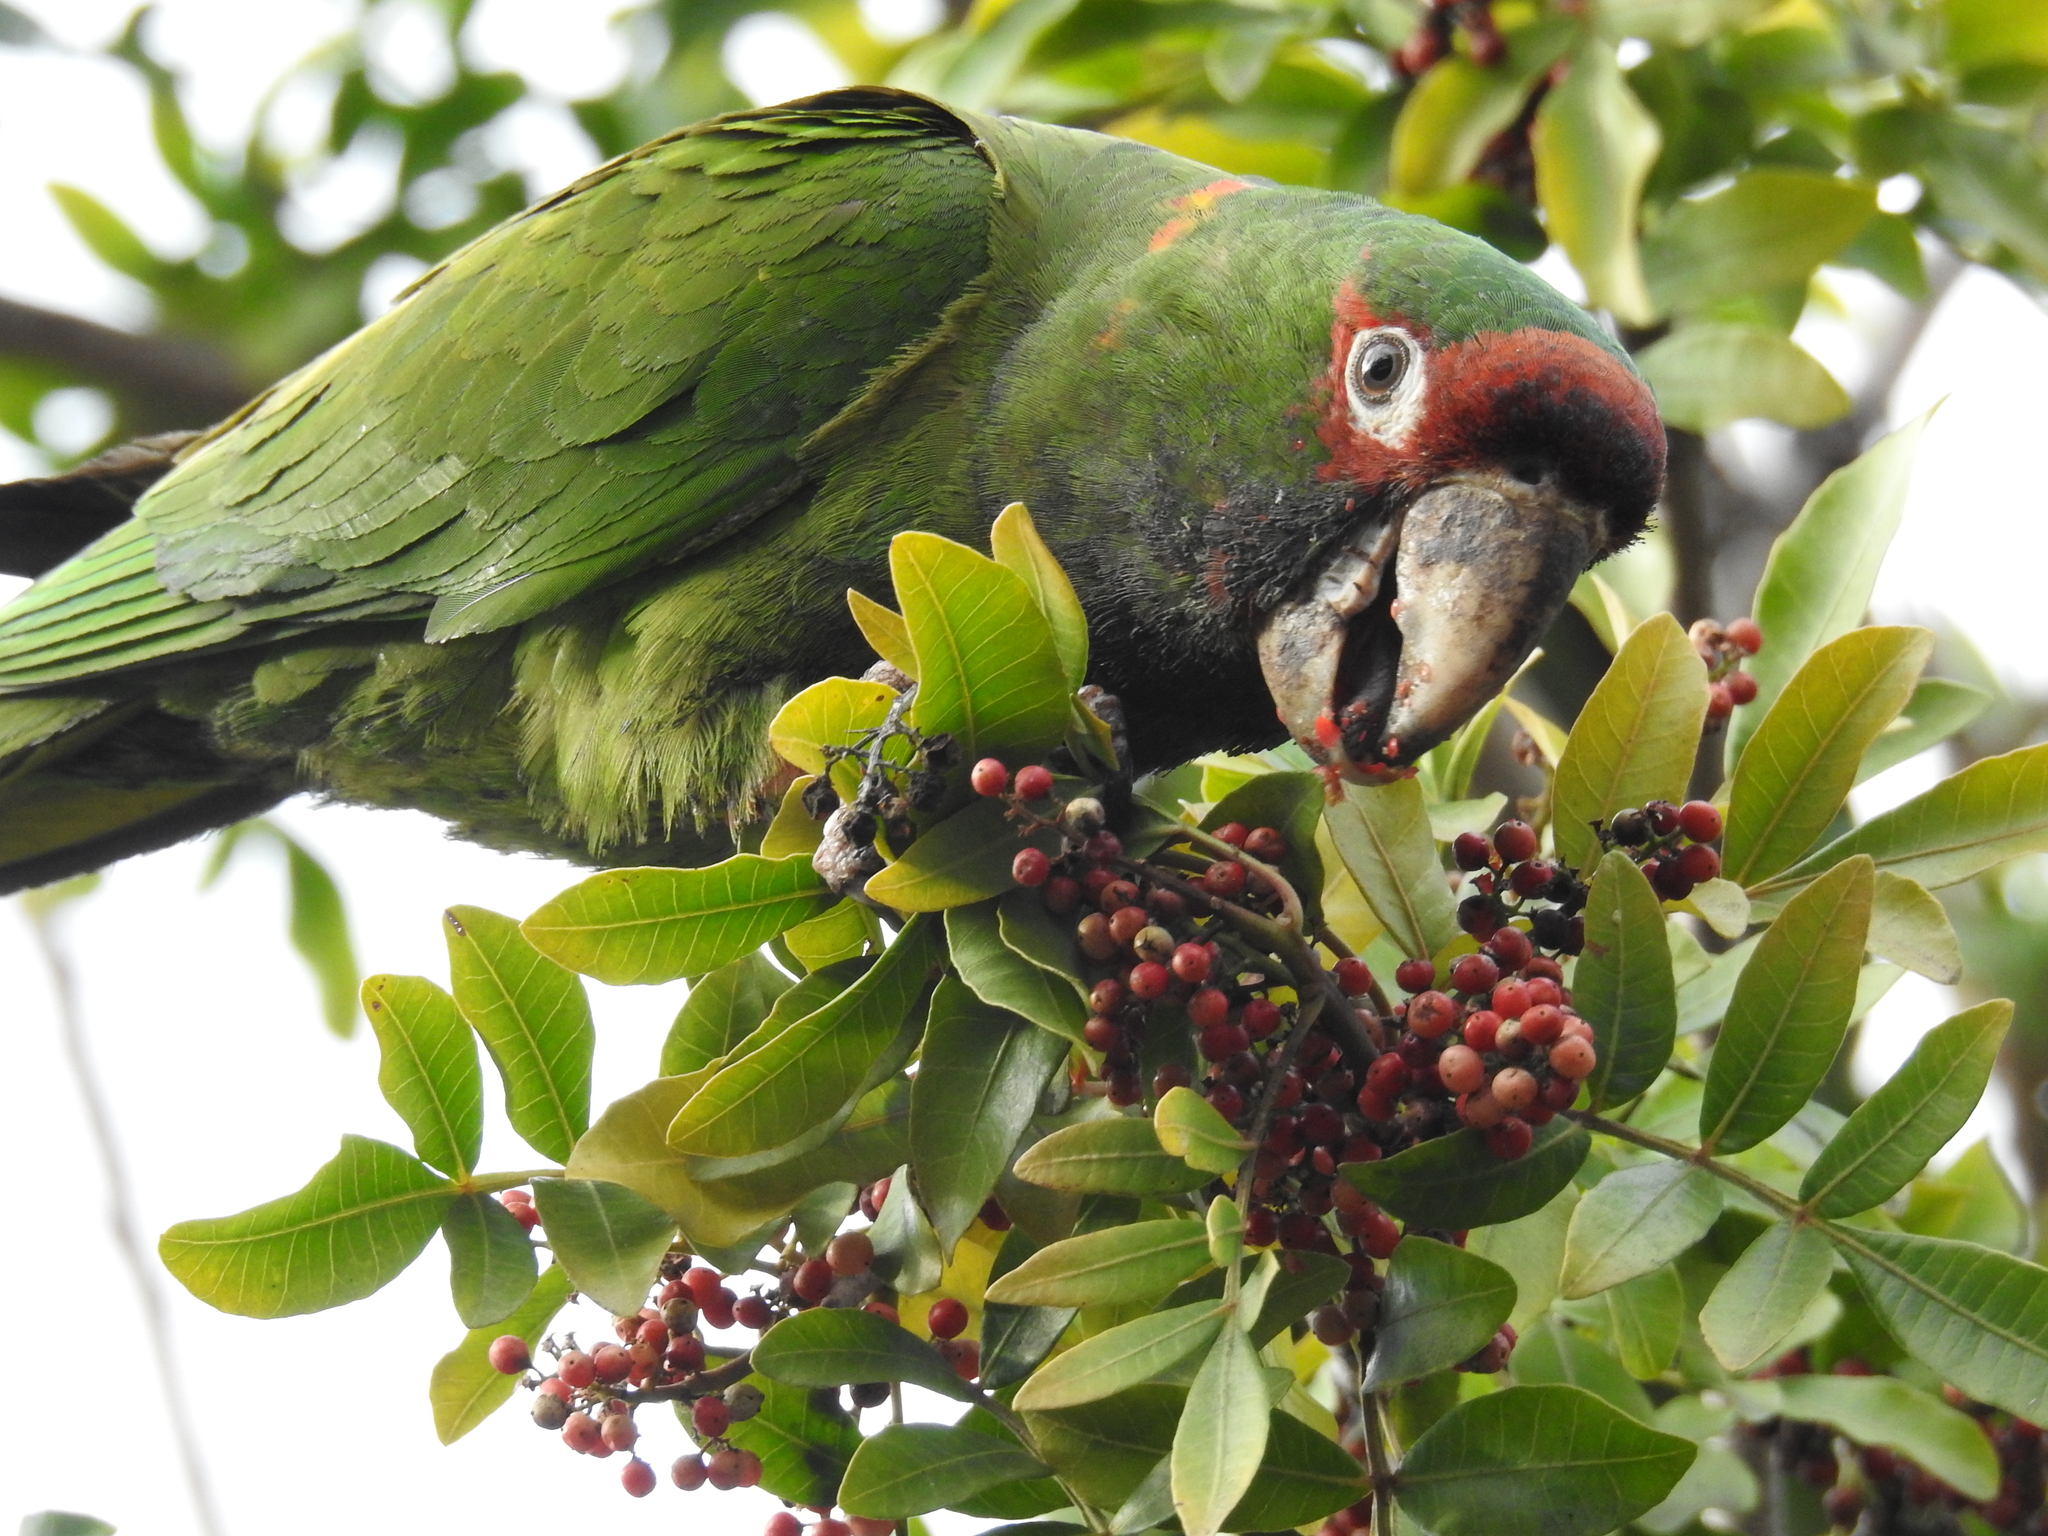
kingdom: Animalia
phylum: Chordata
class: Aves
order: Psittaciformes
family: Psittacidae
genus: Aratinga
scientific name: Aratinga mitrata
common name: Mitred parakeet
